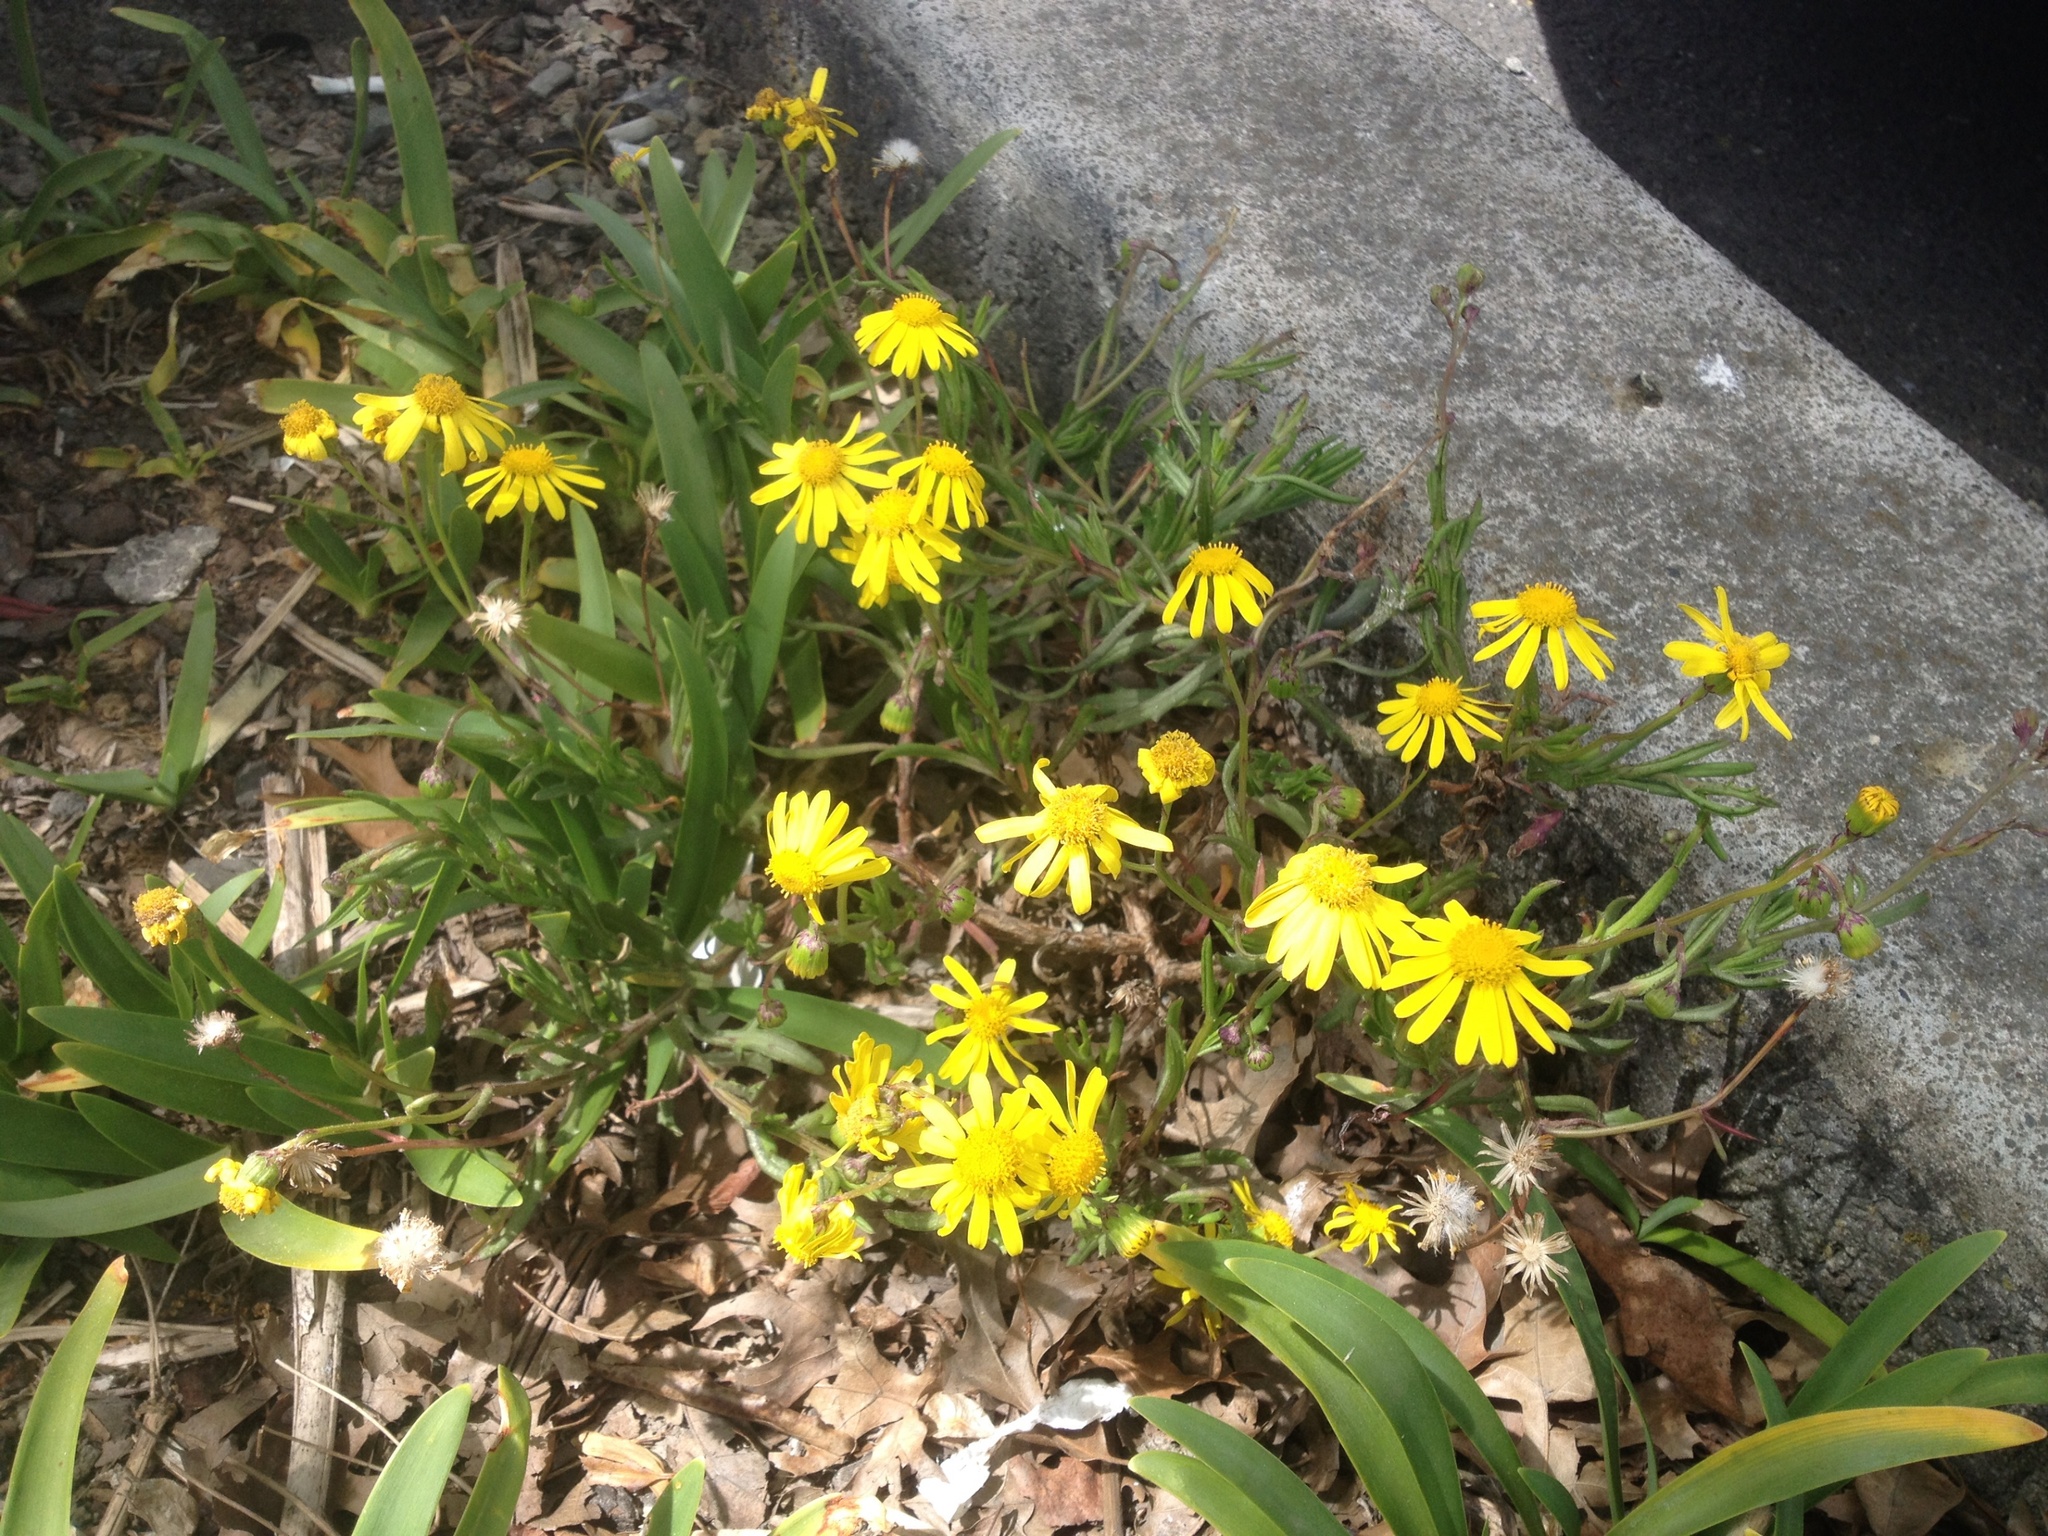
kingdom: Plantae
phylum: Tracheophyta
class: Magnoliopsida
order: Asterales
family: Asteraceae
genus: Senecio
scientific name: Senecio skirrhodon
